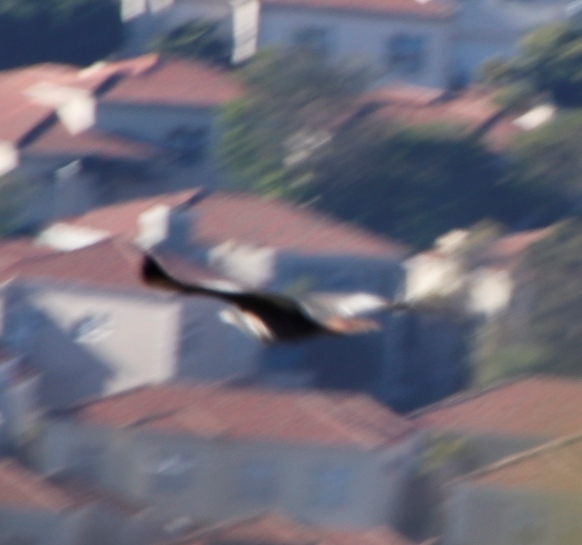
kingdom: Animalia
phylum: Chordata
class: Aves
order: Accipitriformes
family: Accipitridae
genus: Buteo
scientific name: Buteo rufofuscus
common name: Jackal buzzard
